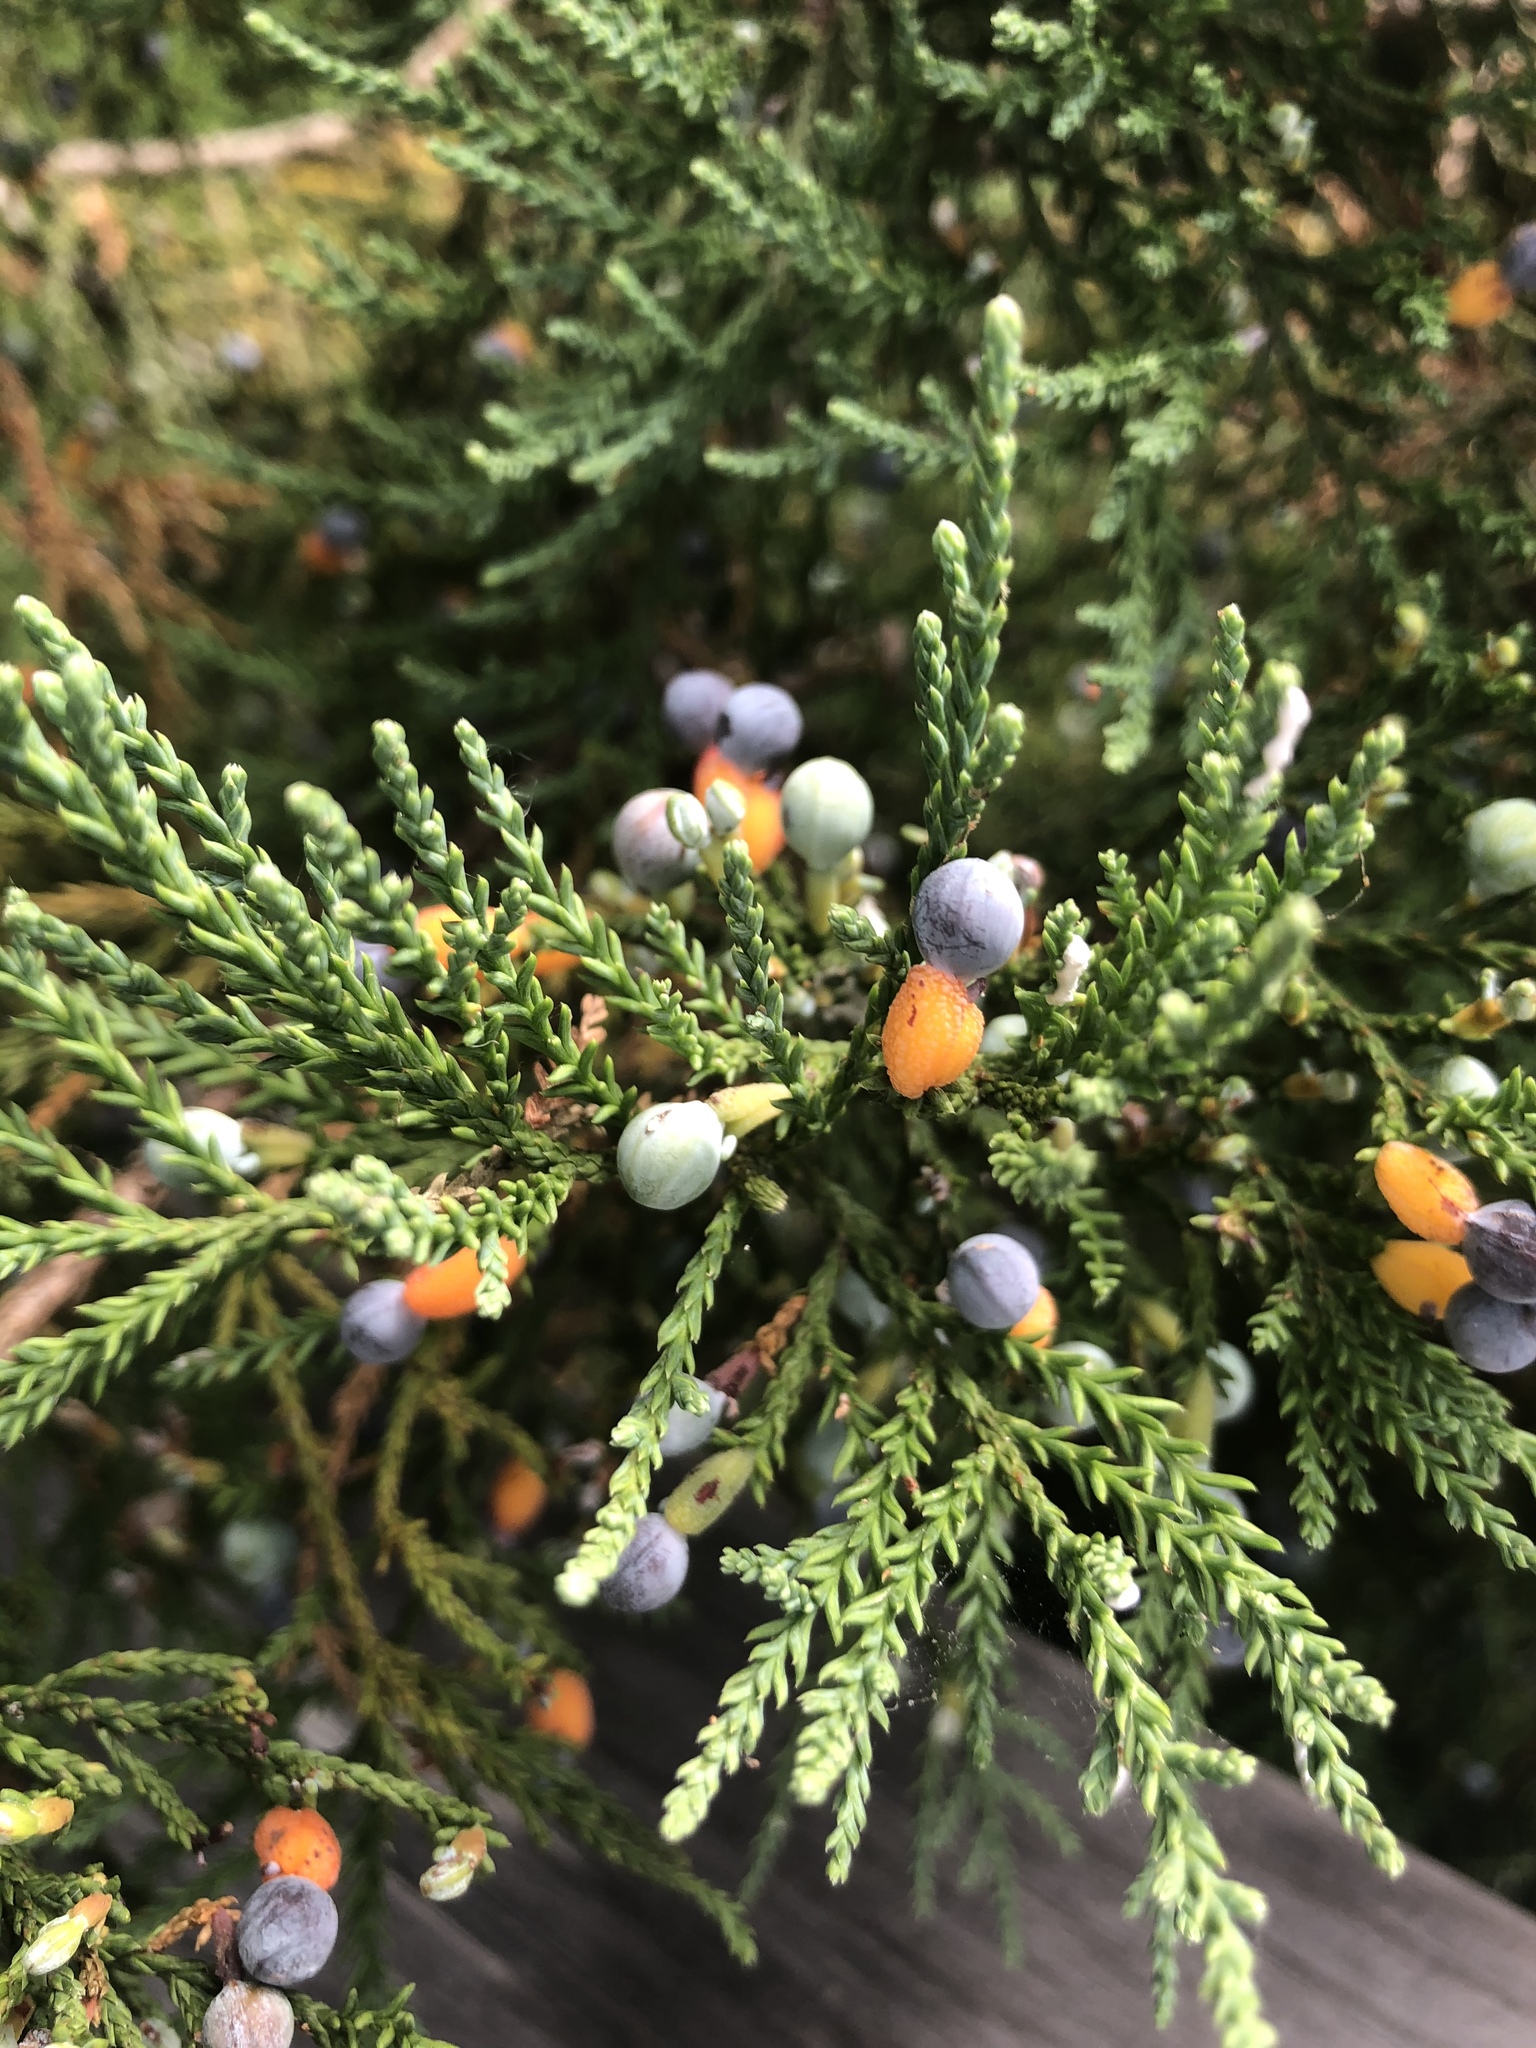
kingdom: Plantae
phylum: Tracheophyta
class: Pinopsida
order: Pinales
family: Podocarpaceae
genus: Dacrycarpus
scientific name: Dacrycarpus dacrydioides
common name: White pine
